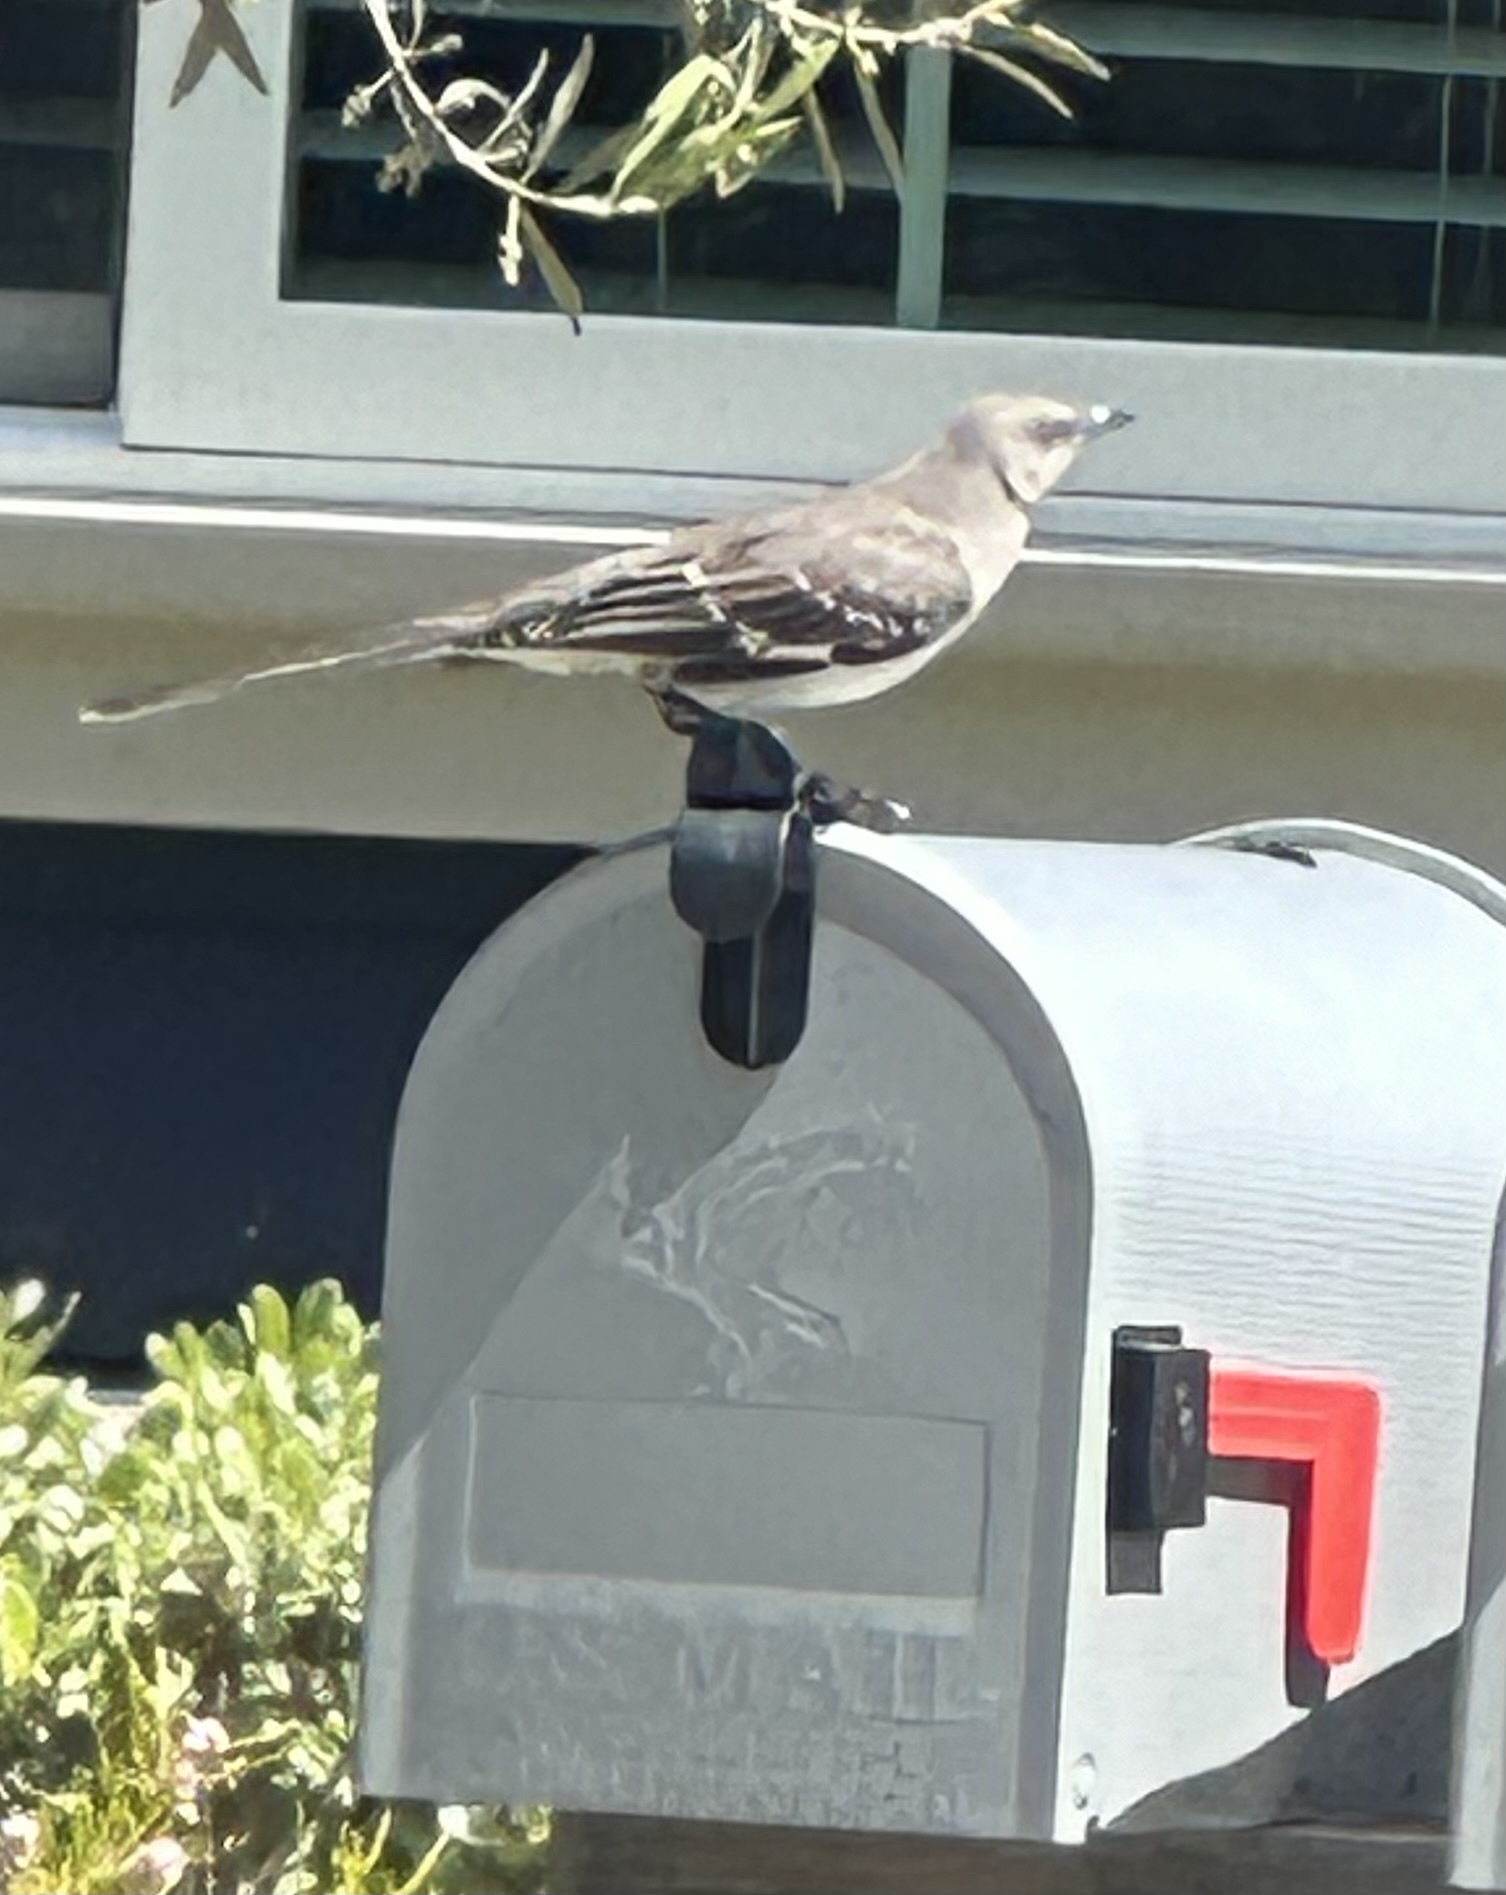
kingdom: Animalia
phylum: Chordata
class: Aves
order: Passeriformes
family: Mimidae
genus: Mimus
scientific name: Mimus polyglottos
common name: Northern mockingbird
